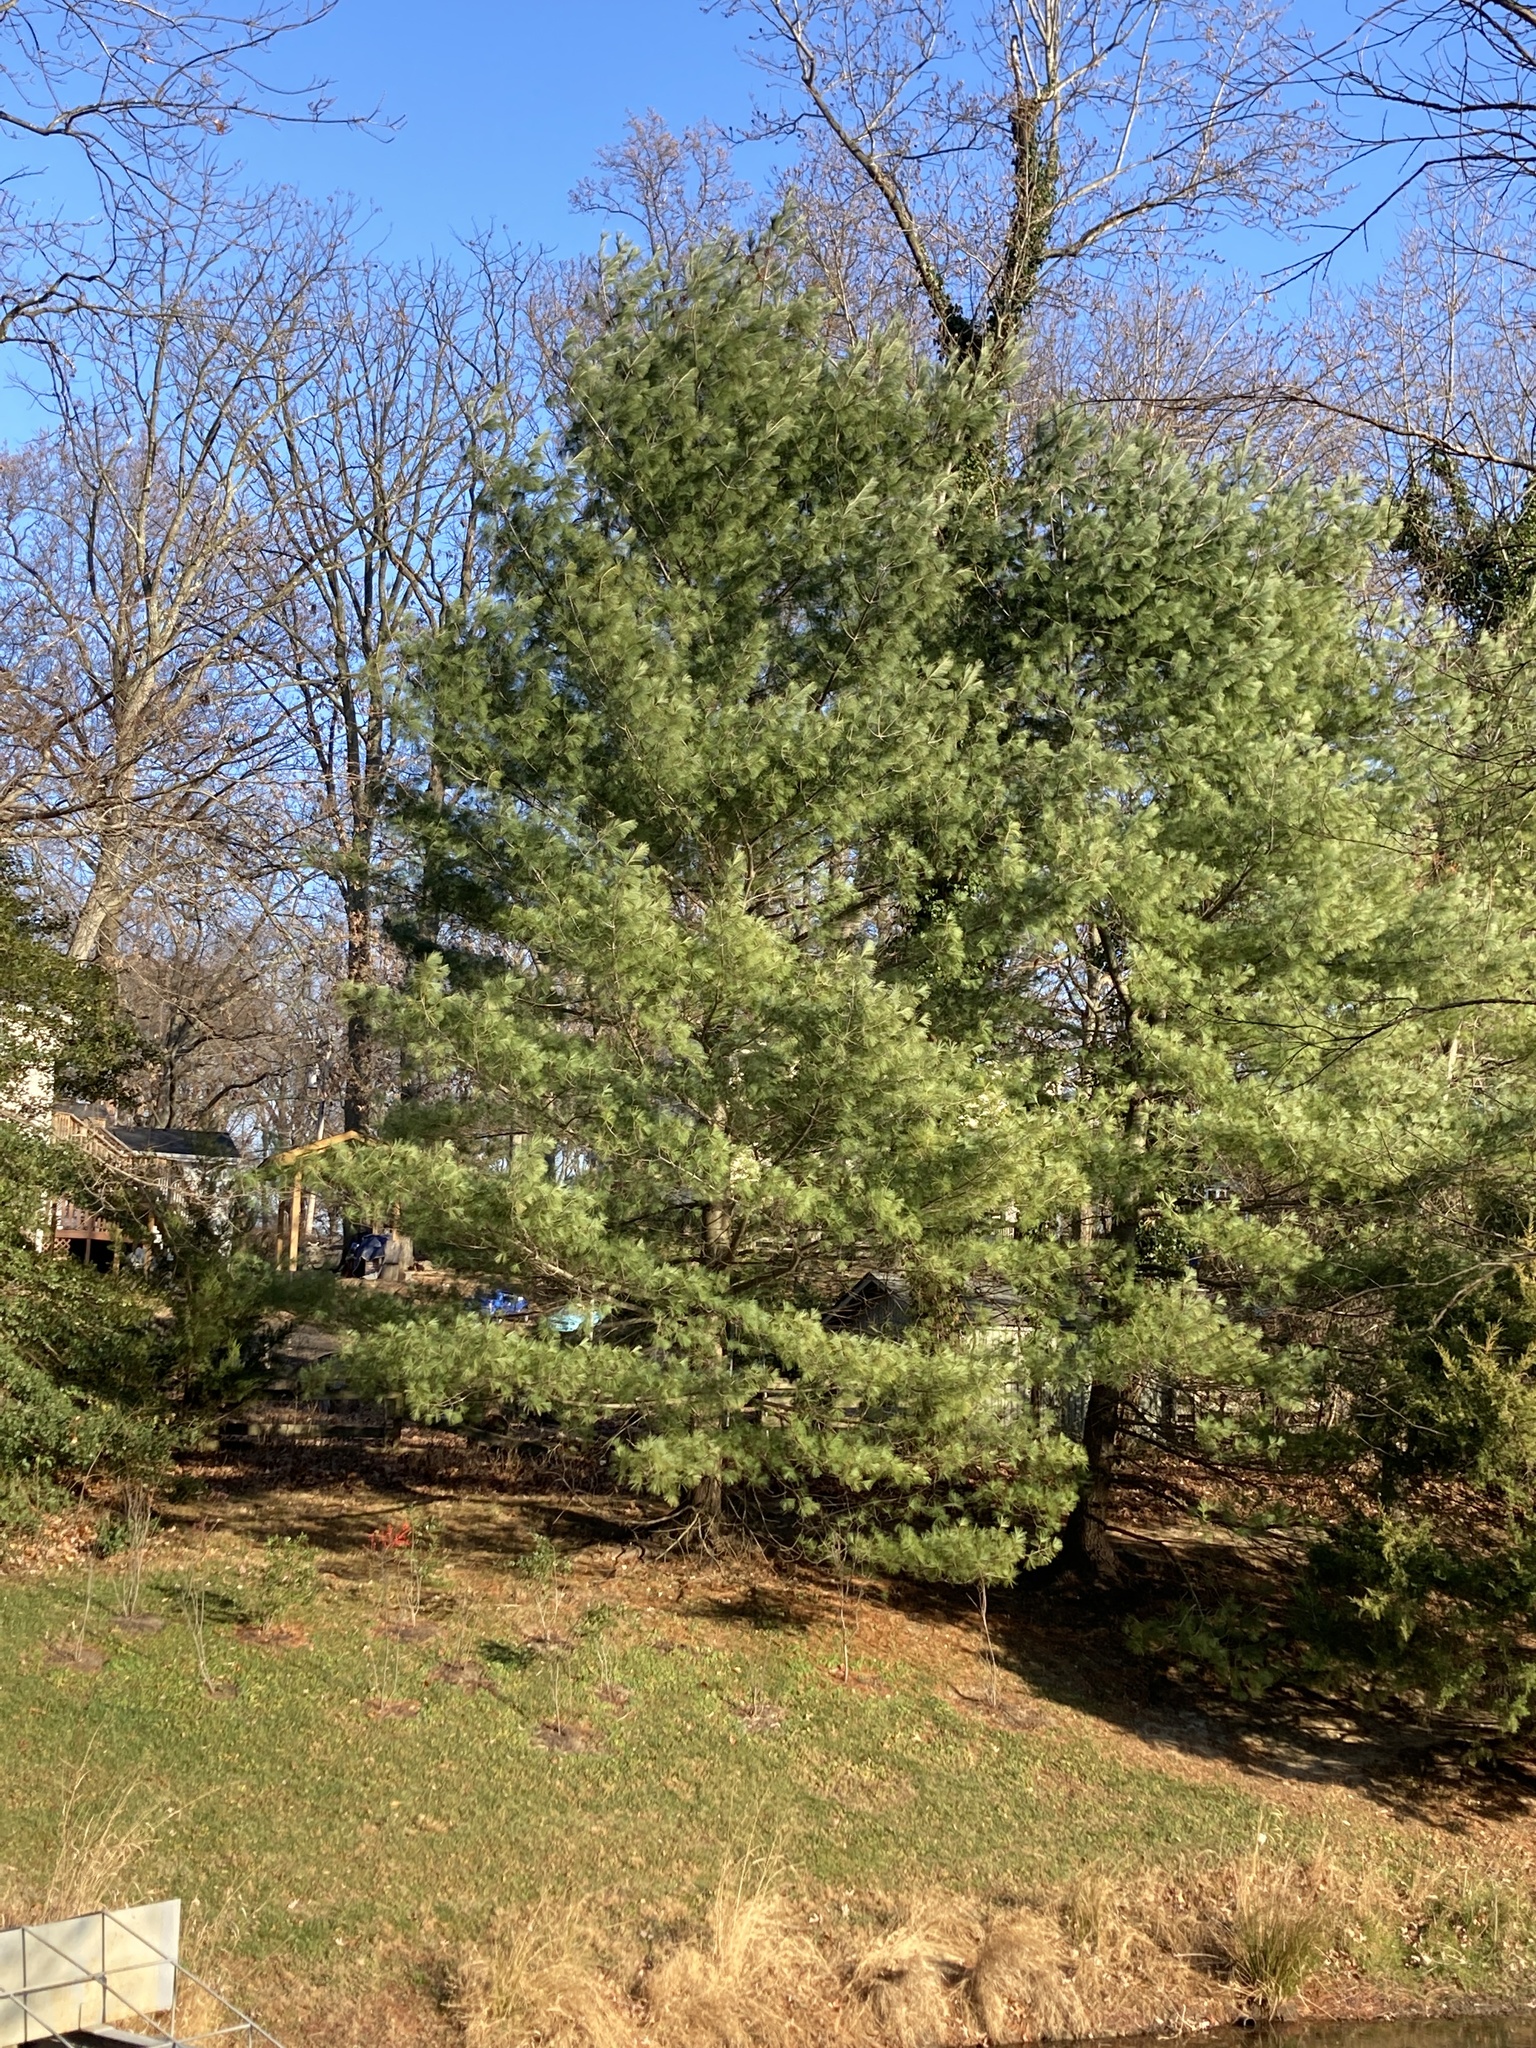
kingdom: Plantae
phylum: Tracheophyta
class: Pinopsida
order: Pinales
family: Pinaceae
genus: Pinus
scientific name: Pinus strobus
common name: Weymouth pine
